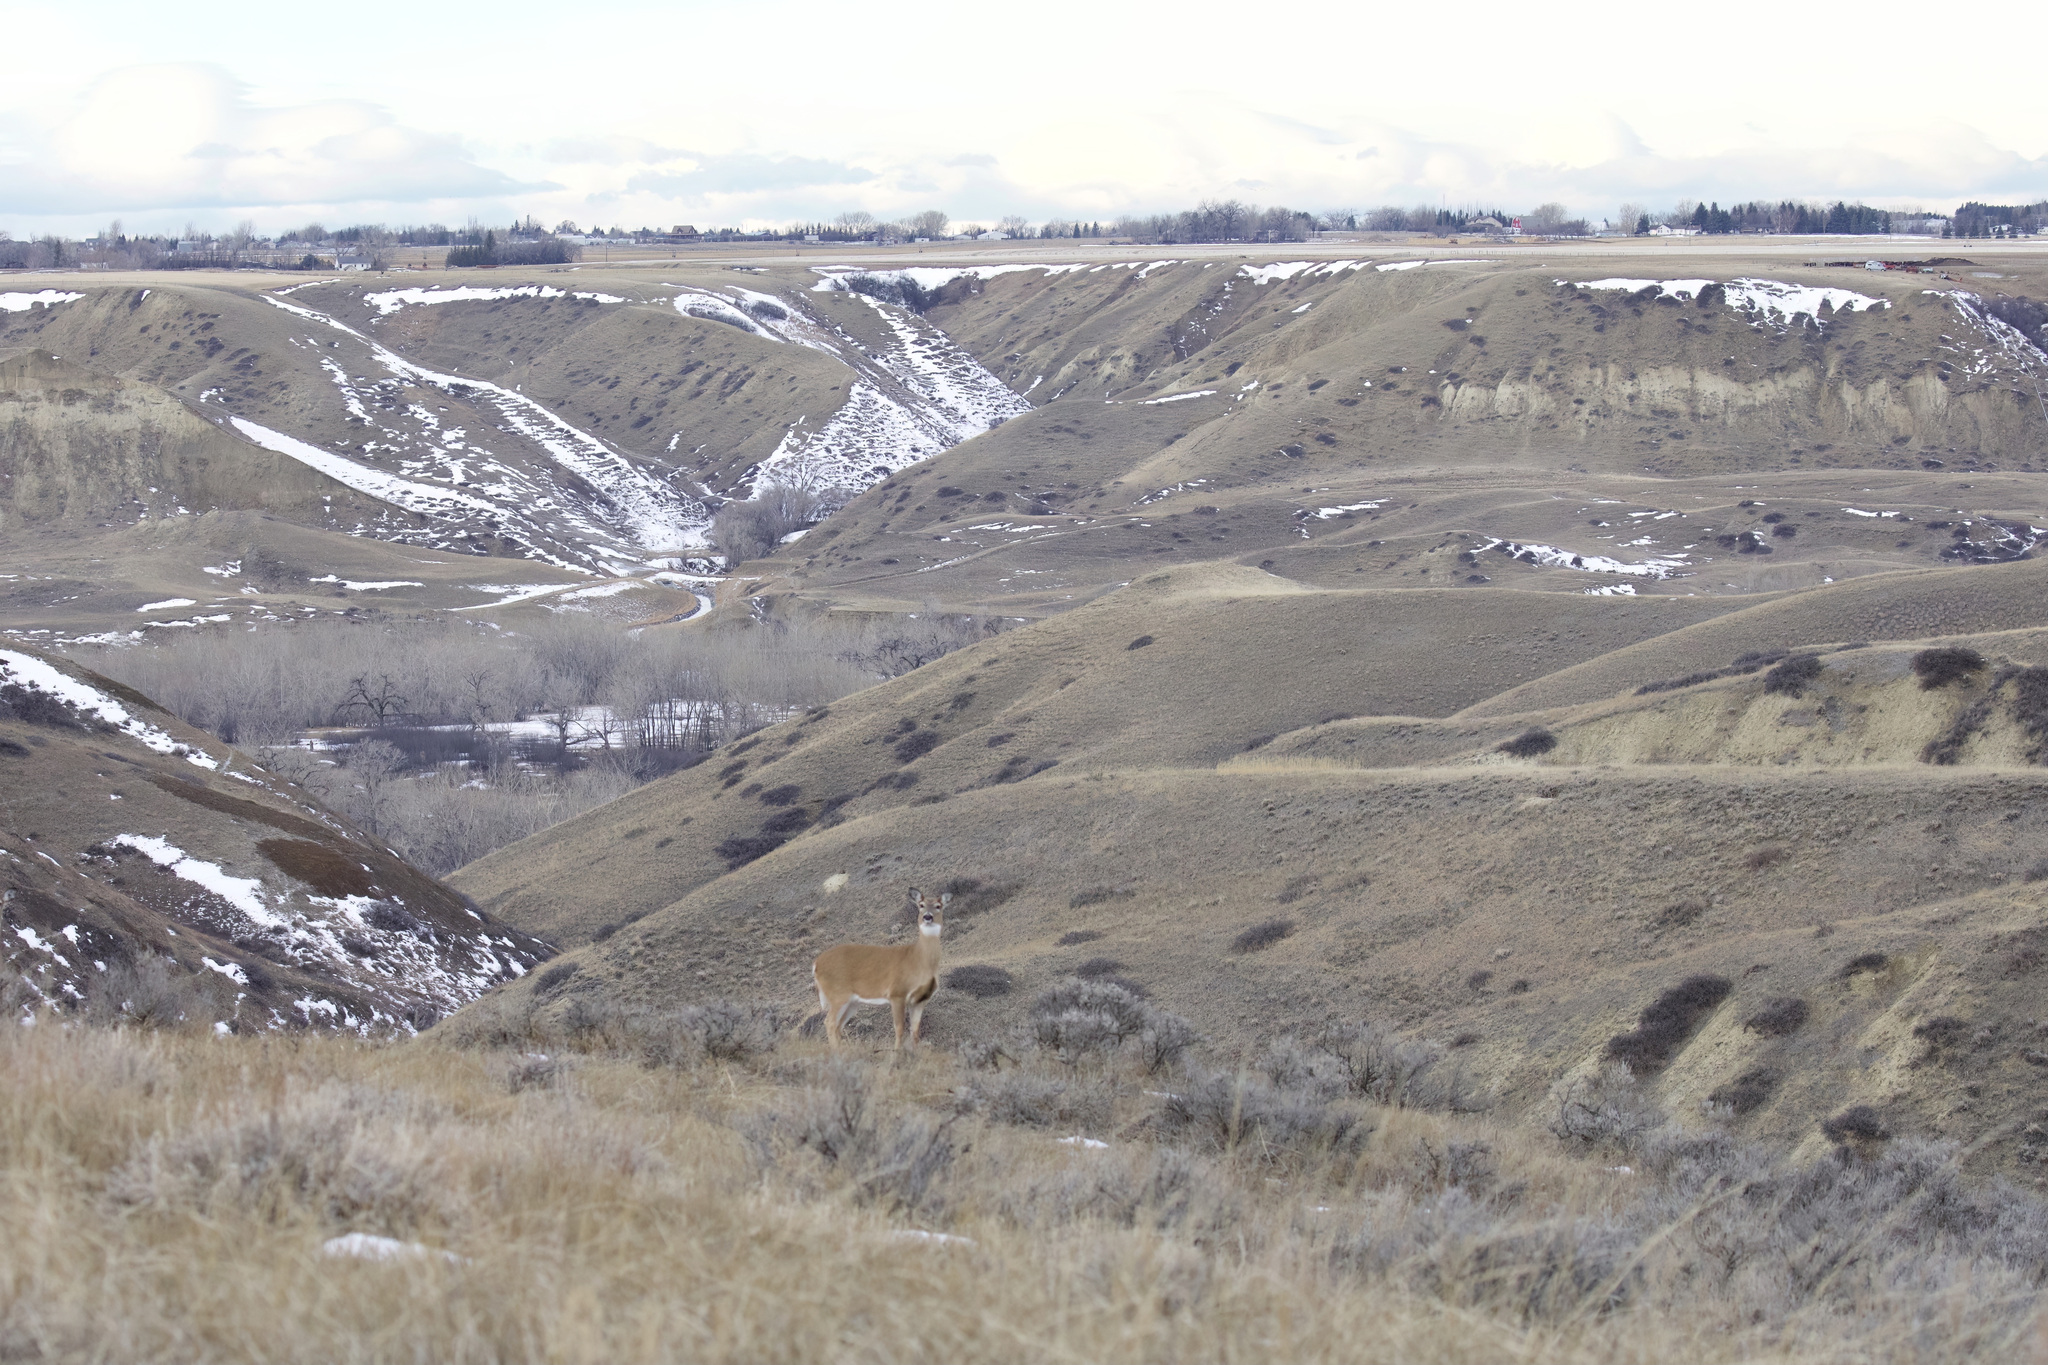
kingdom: Animalia
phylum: Chordata
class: Mammalia
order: Artiodactyla
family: Cervidae
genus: Odocoileus
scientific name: Odocoileus virginianus
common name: White-tailed deer
